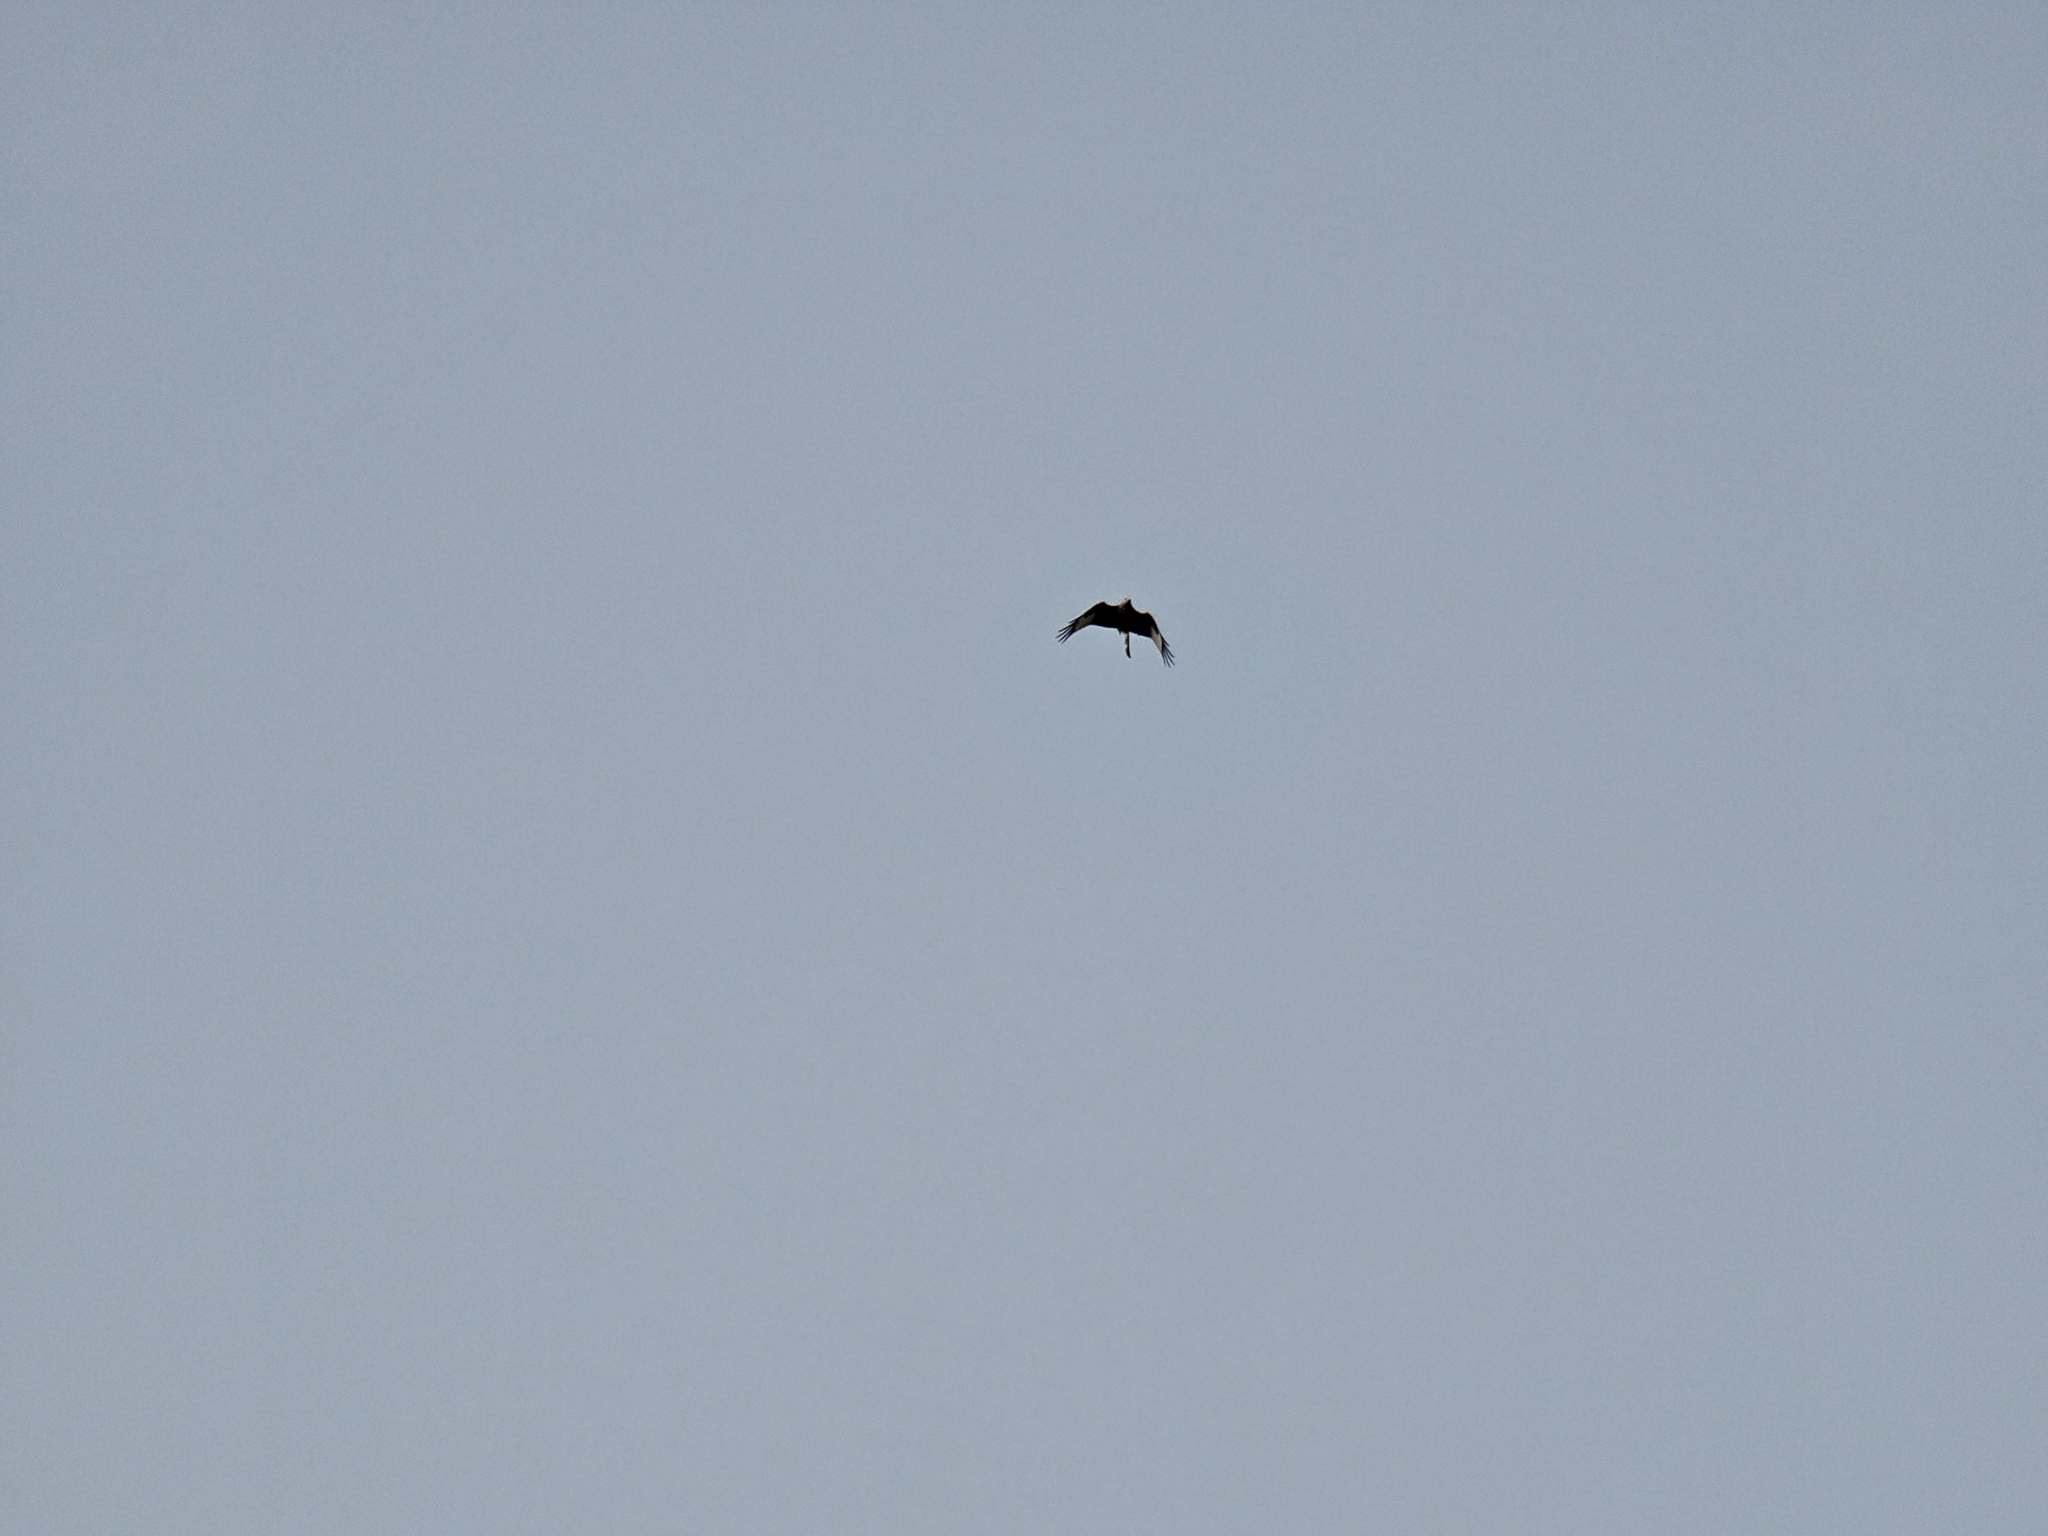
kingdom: Animalia
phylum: Chordata
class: Aves
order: Accipitriformes
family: Accipitridae
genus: Milvus
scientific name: Milvus milvus
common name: Red kite
